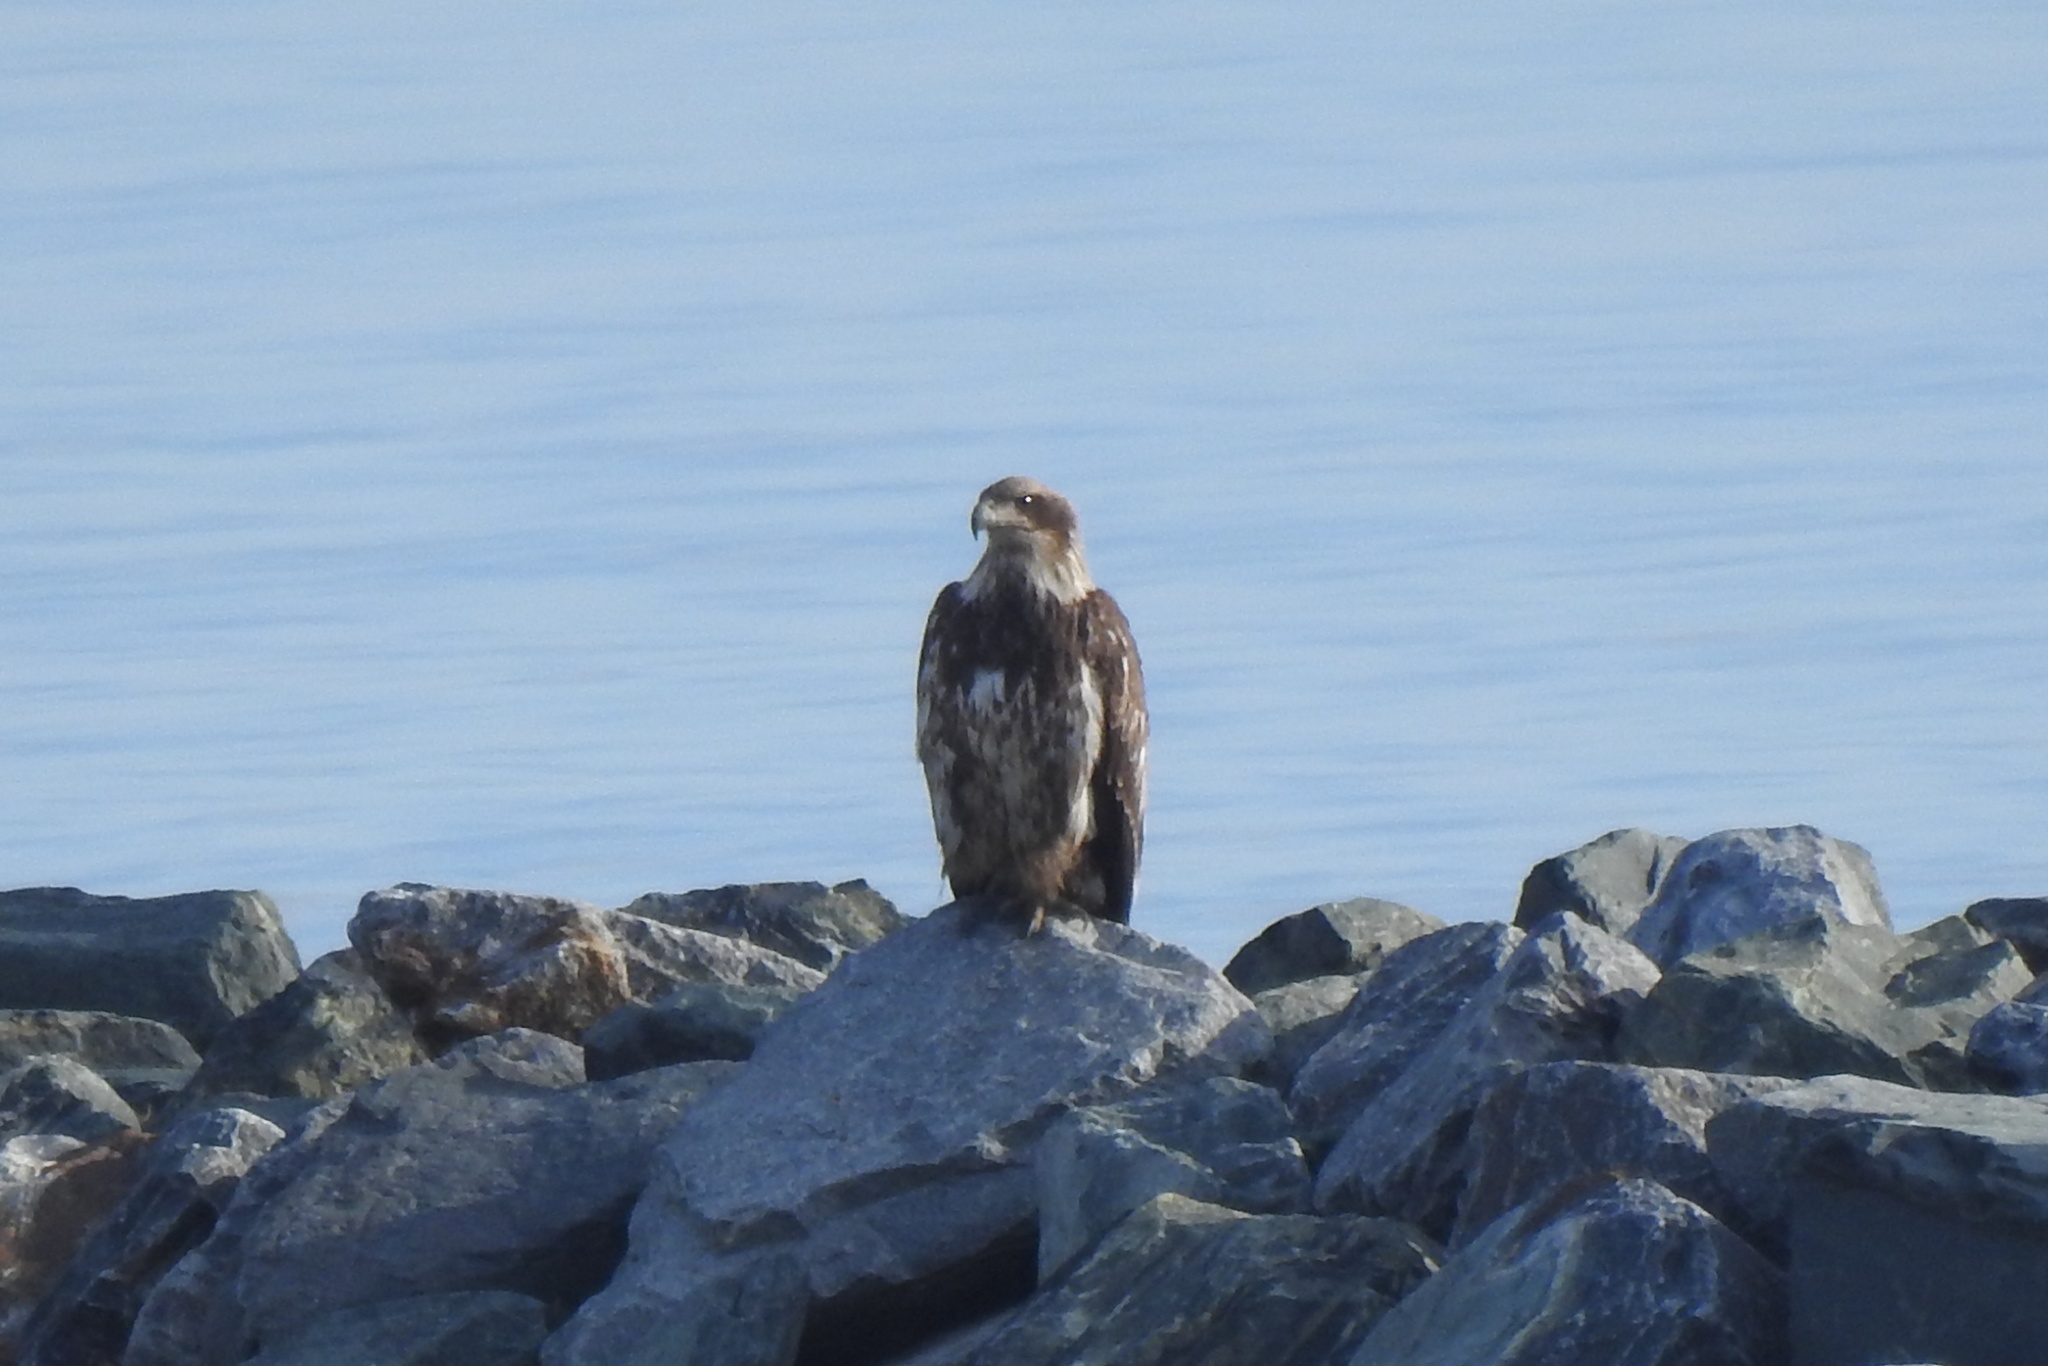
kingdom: Animalia
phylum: Chordata
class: Aves
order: Accipitriformes
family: Accipitridae
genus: Haliaeetus
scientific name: Haliaeetus leucocephalus
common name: Bald eagle
